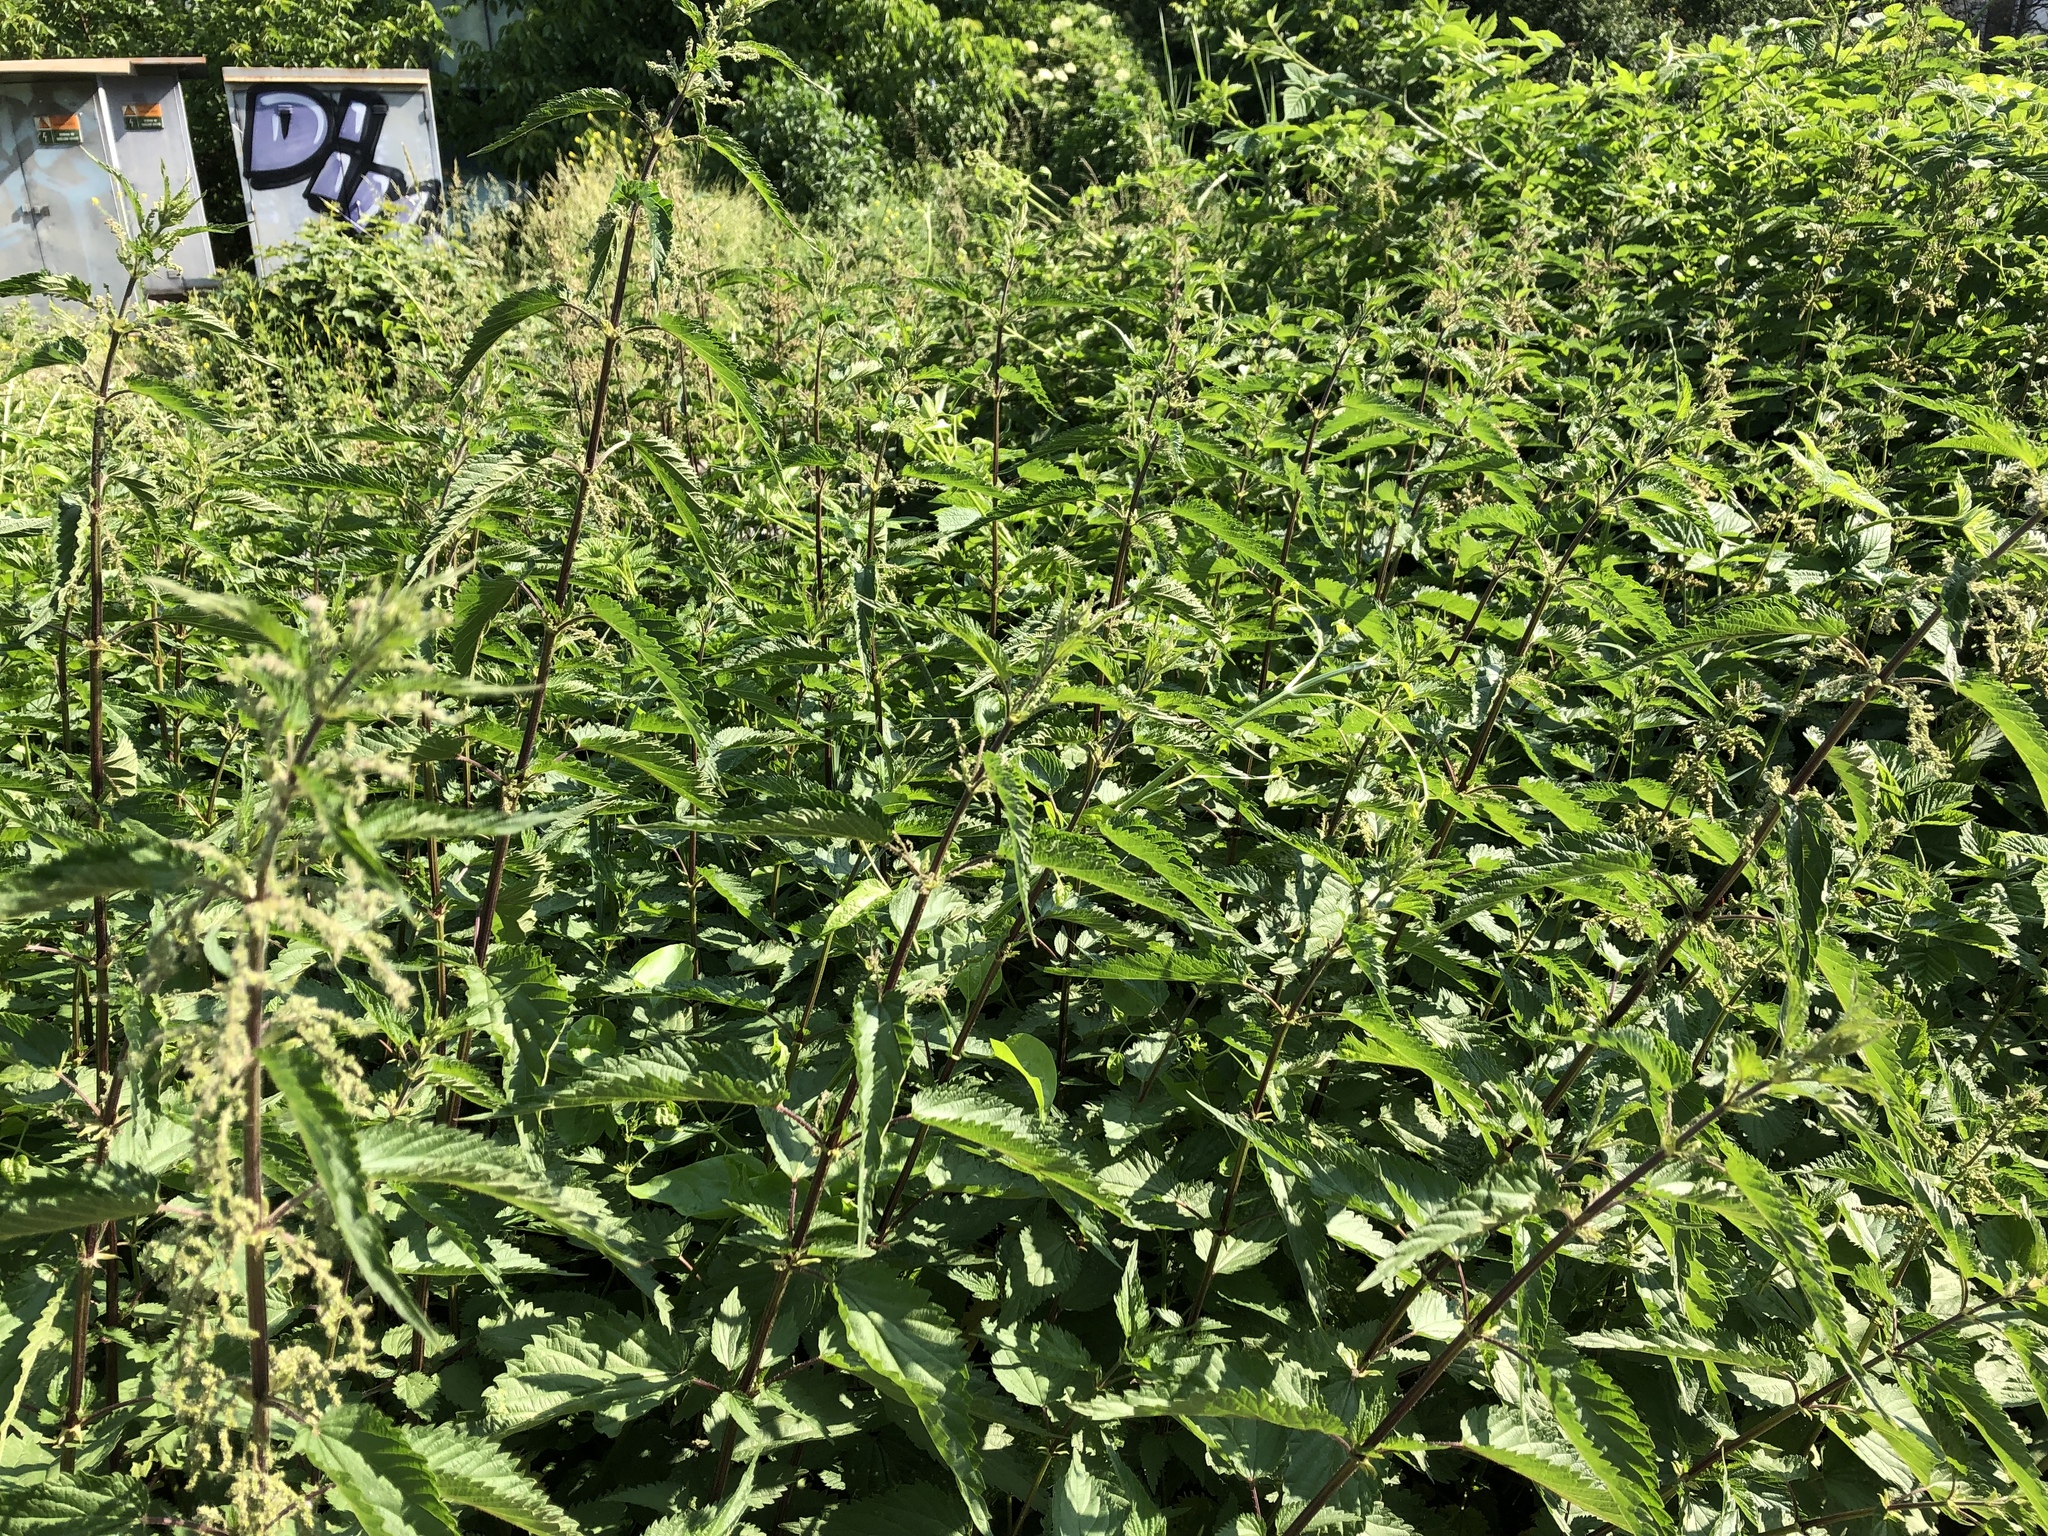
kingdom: Plantae
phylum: Tracheophyta
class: Magnoliopsida
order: Rosales
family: Urticaceae
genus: Urtica
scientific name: Urtica dioica
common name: Common nettle
